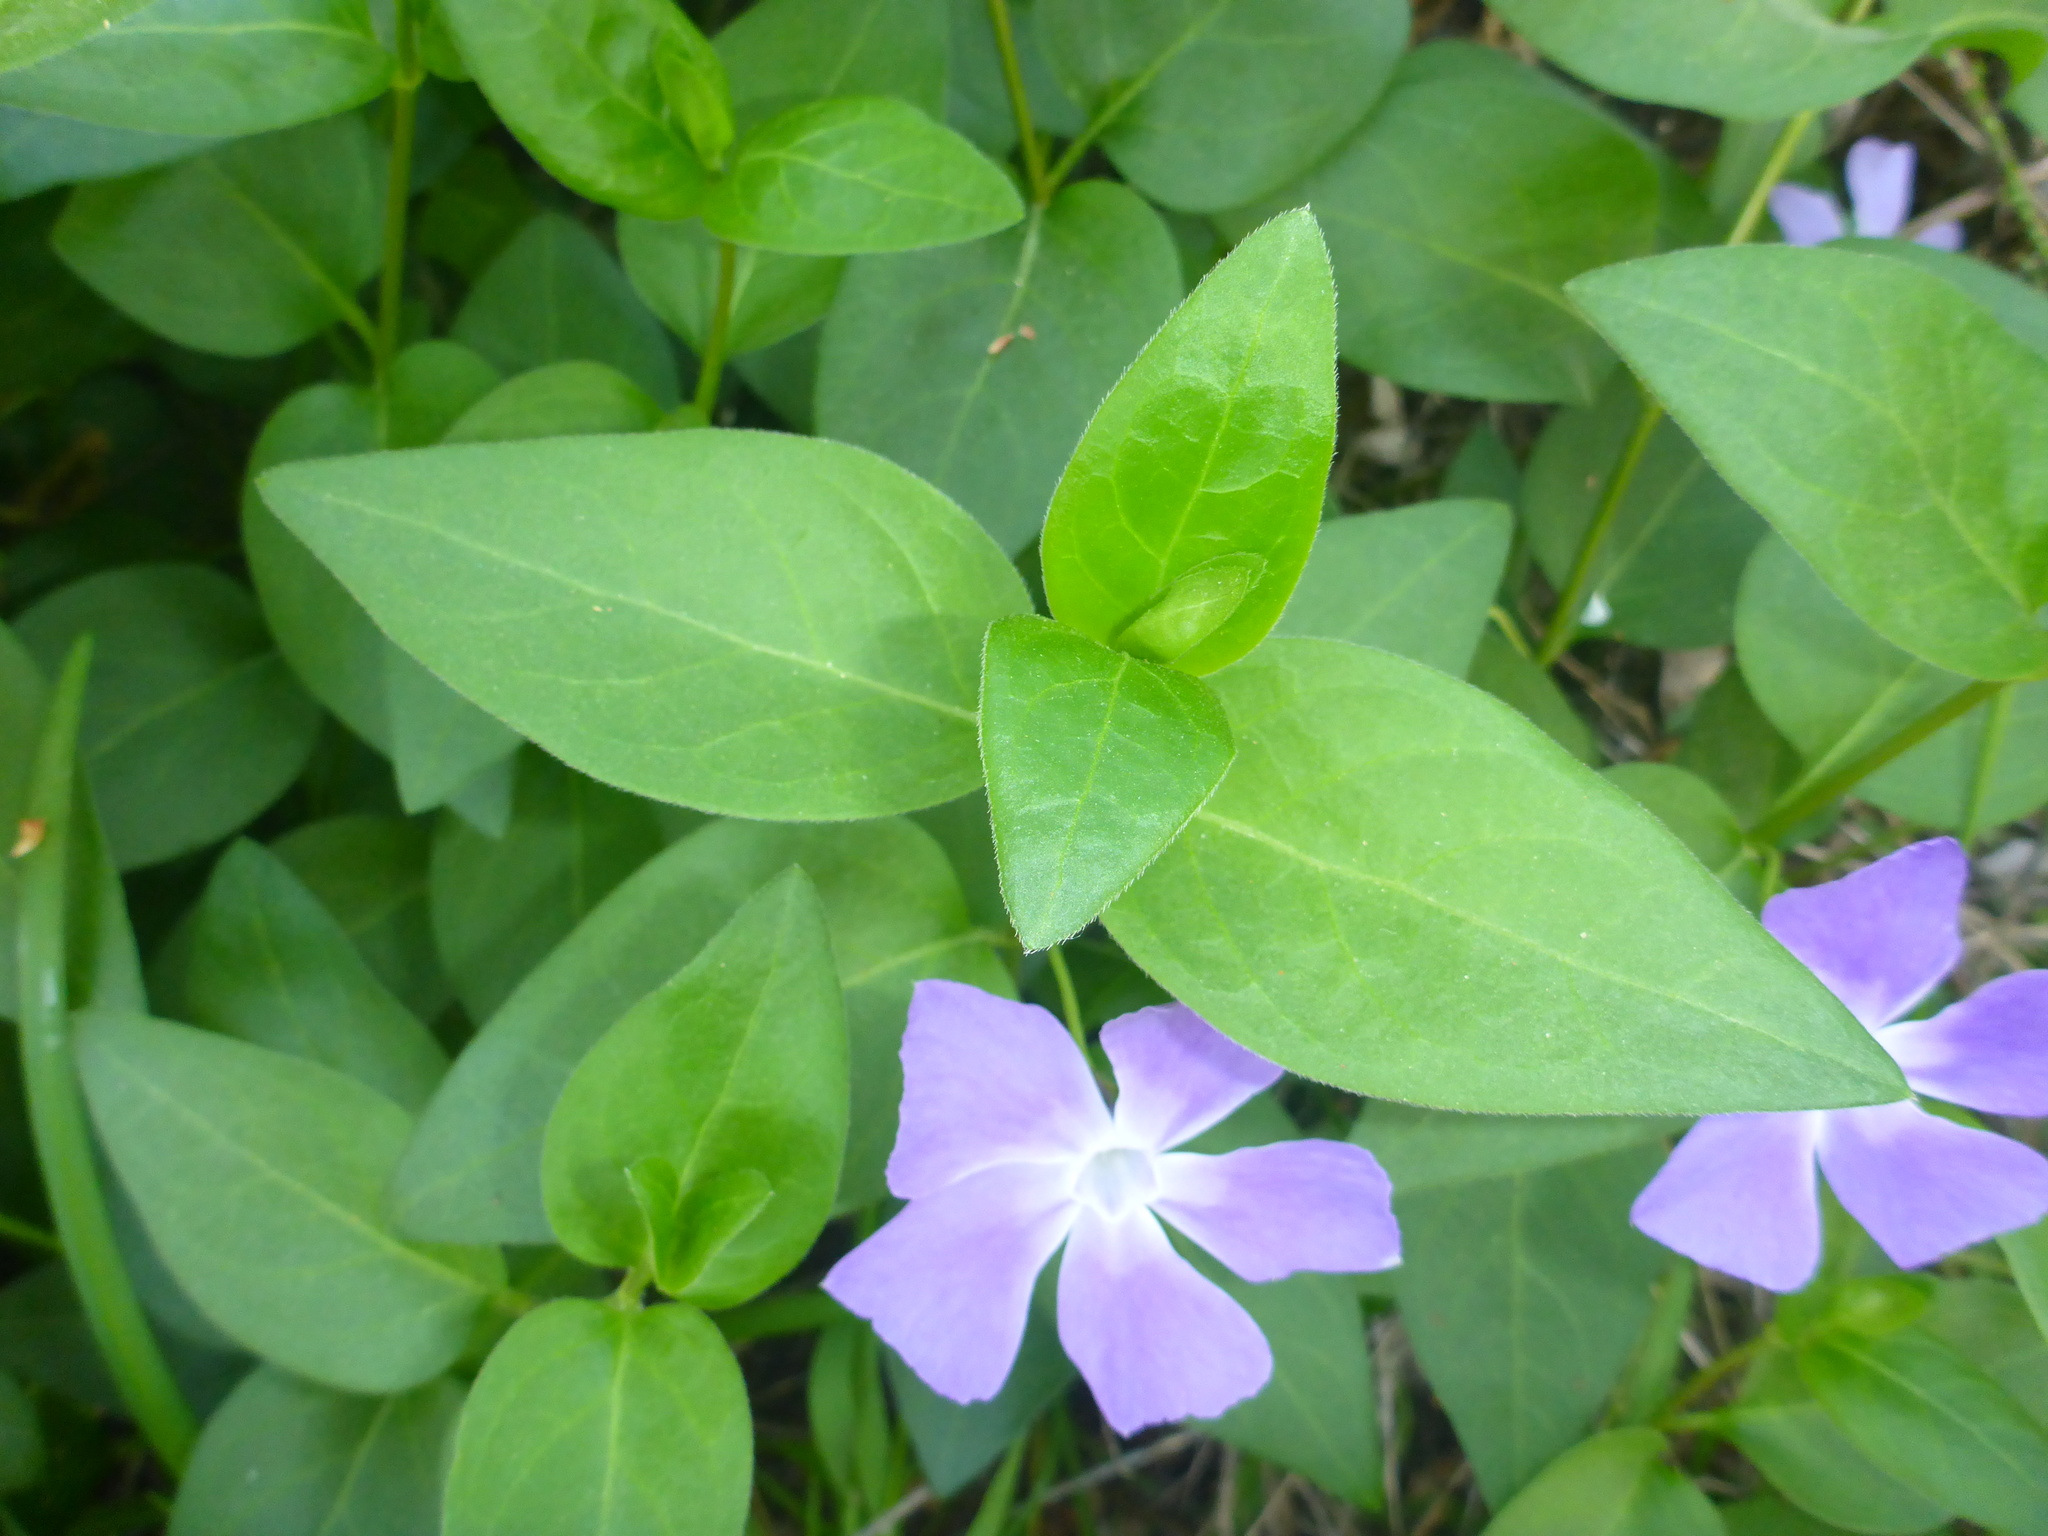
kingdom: Plantae
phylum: Tracheophyta
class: Magnoliopsida
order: Gentianales
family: Apocynaceae
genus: Vinca
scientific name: Vinca major
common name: Greater periwinkle
